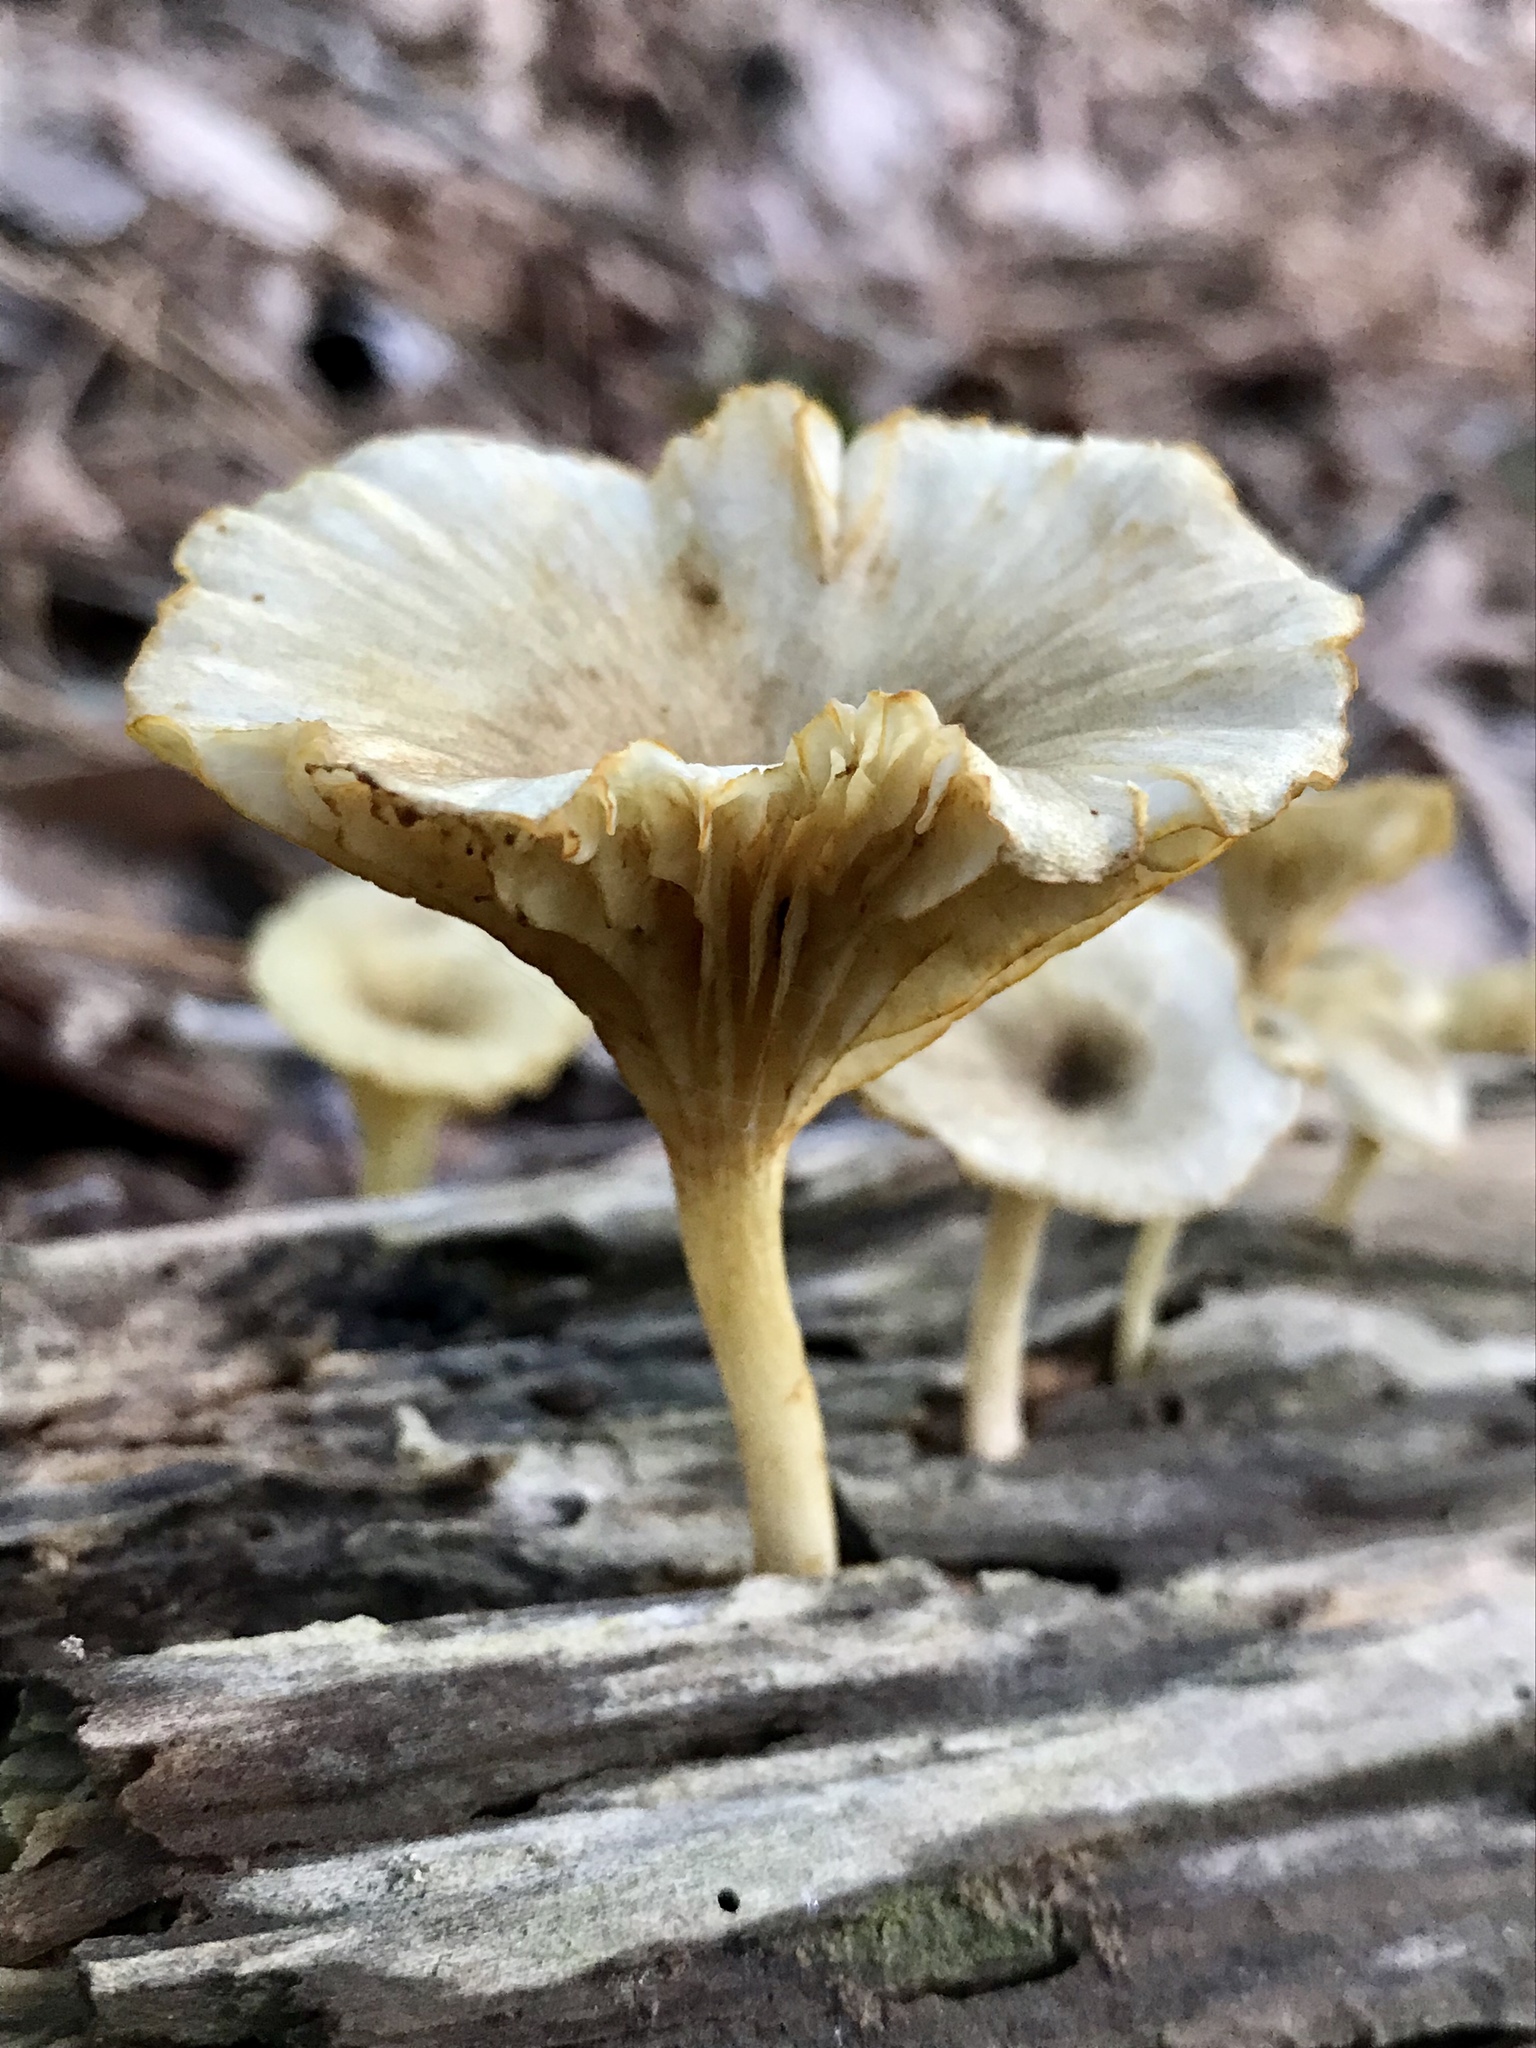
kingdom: Fungi
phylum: Basidiomycota
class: Agaricomycetes
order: Agaricales
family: Marasmiaceae
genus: Gerronema
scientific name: Gerronema strombodes
